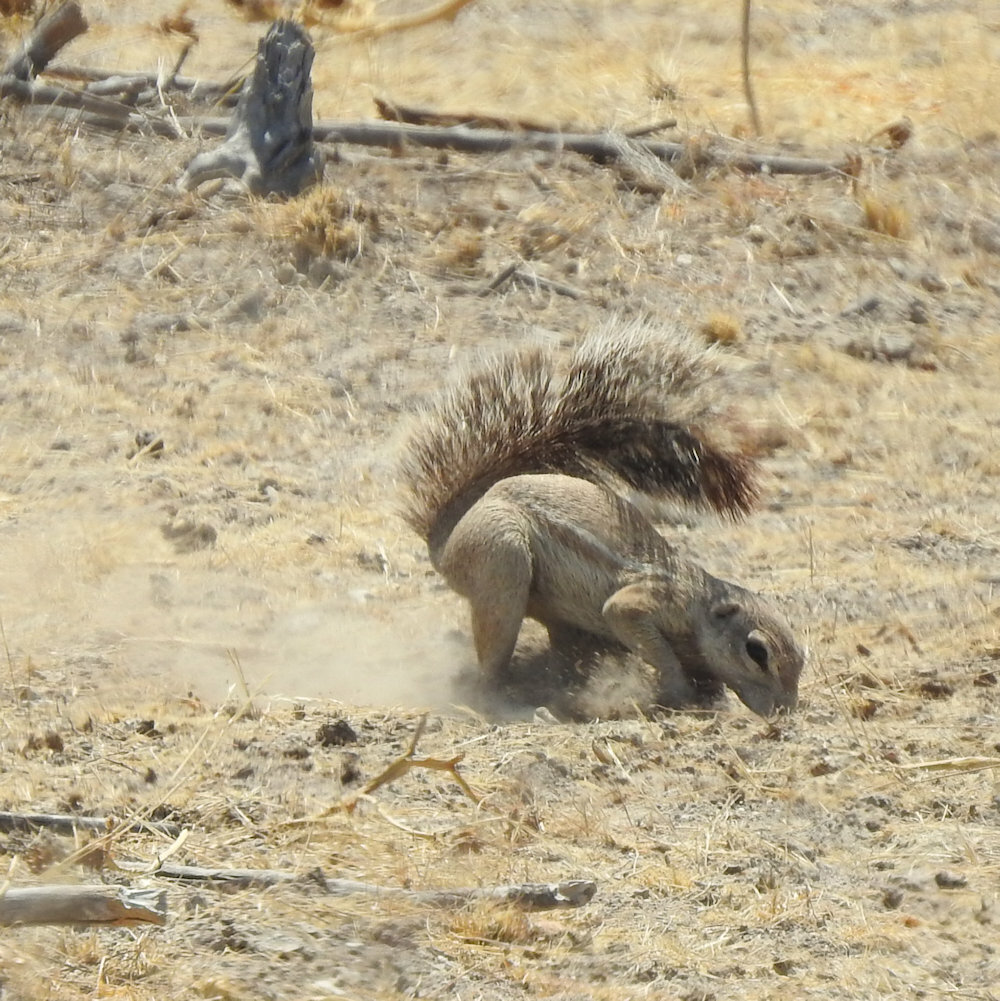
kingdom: Animalia
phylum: Chordata
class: Mammalia
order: Rodentia
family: Sciuridae
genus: Xerus
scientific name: Xerus inauris
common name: South african ground squirrel
